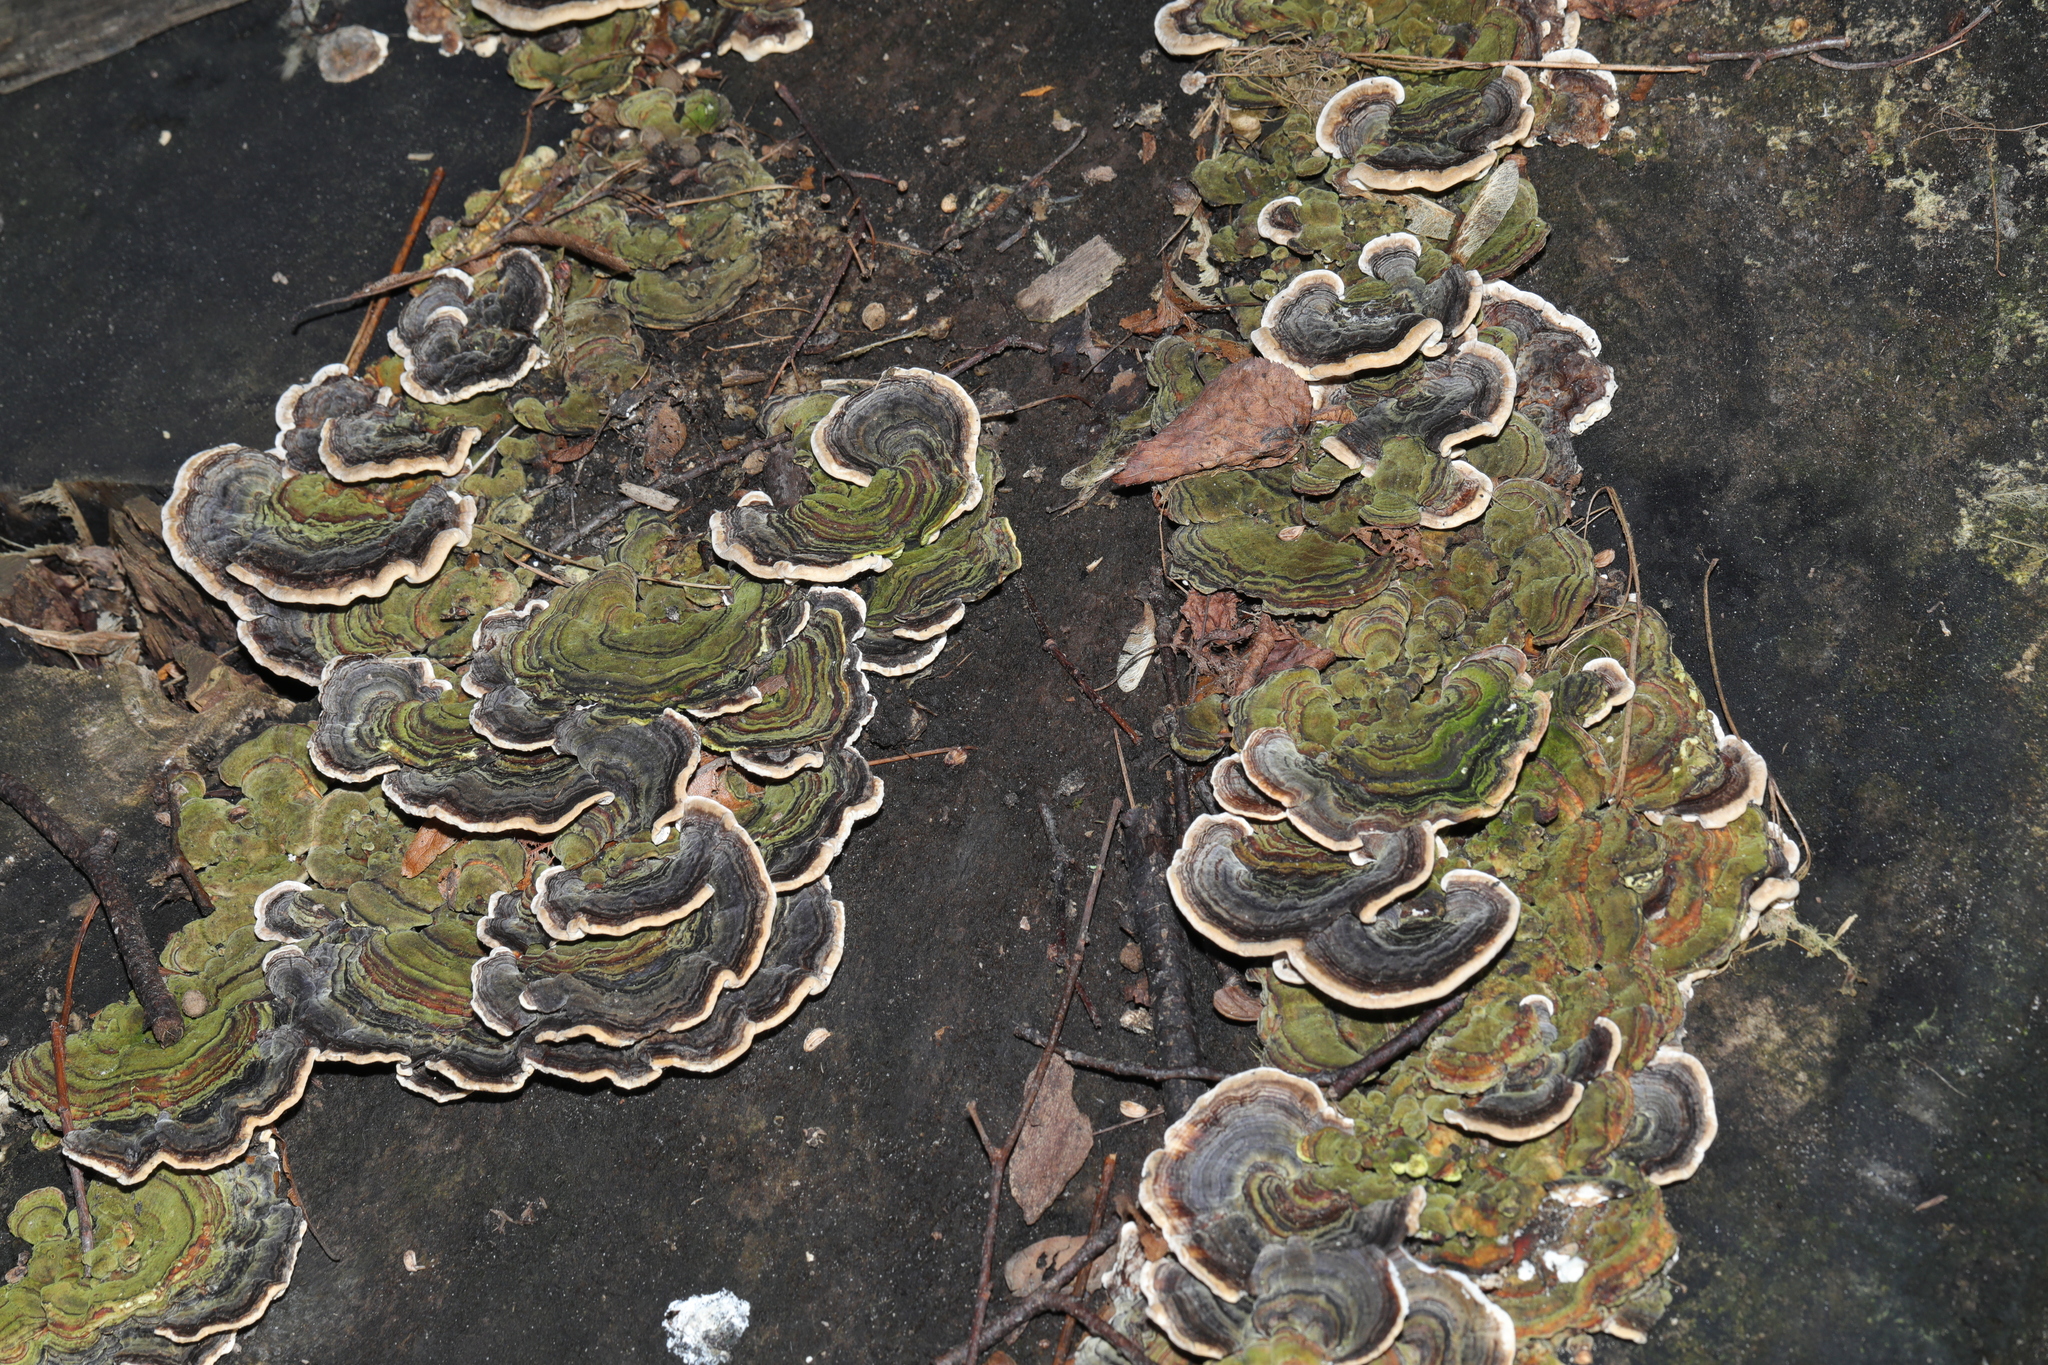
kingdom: Fungi
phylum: Basidiomycota
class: Agaricomycetes
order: Polyporales
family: Polyporaceae
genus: Trametes
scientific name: Trametes versicolor
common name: Turkeytail
